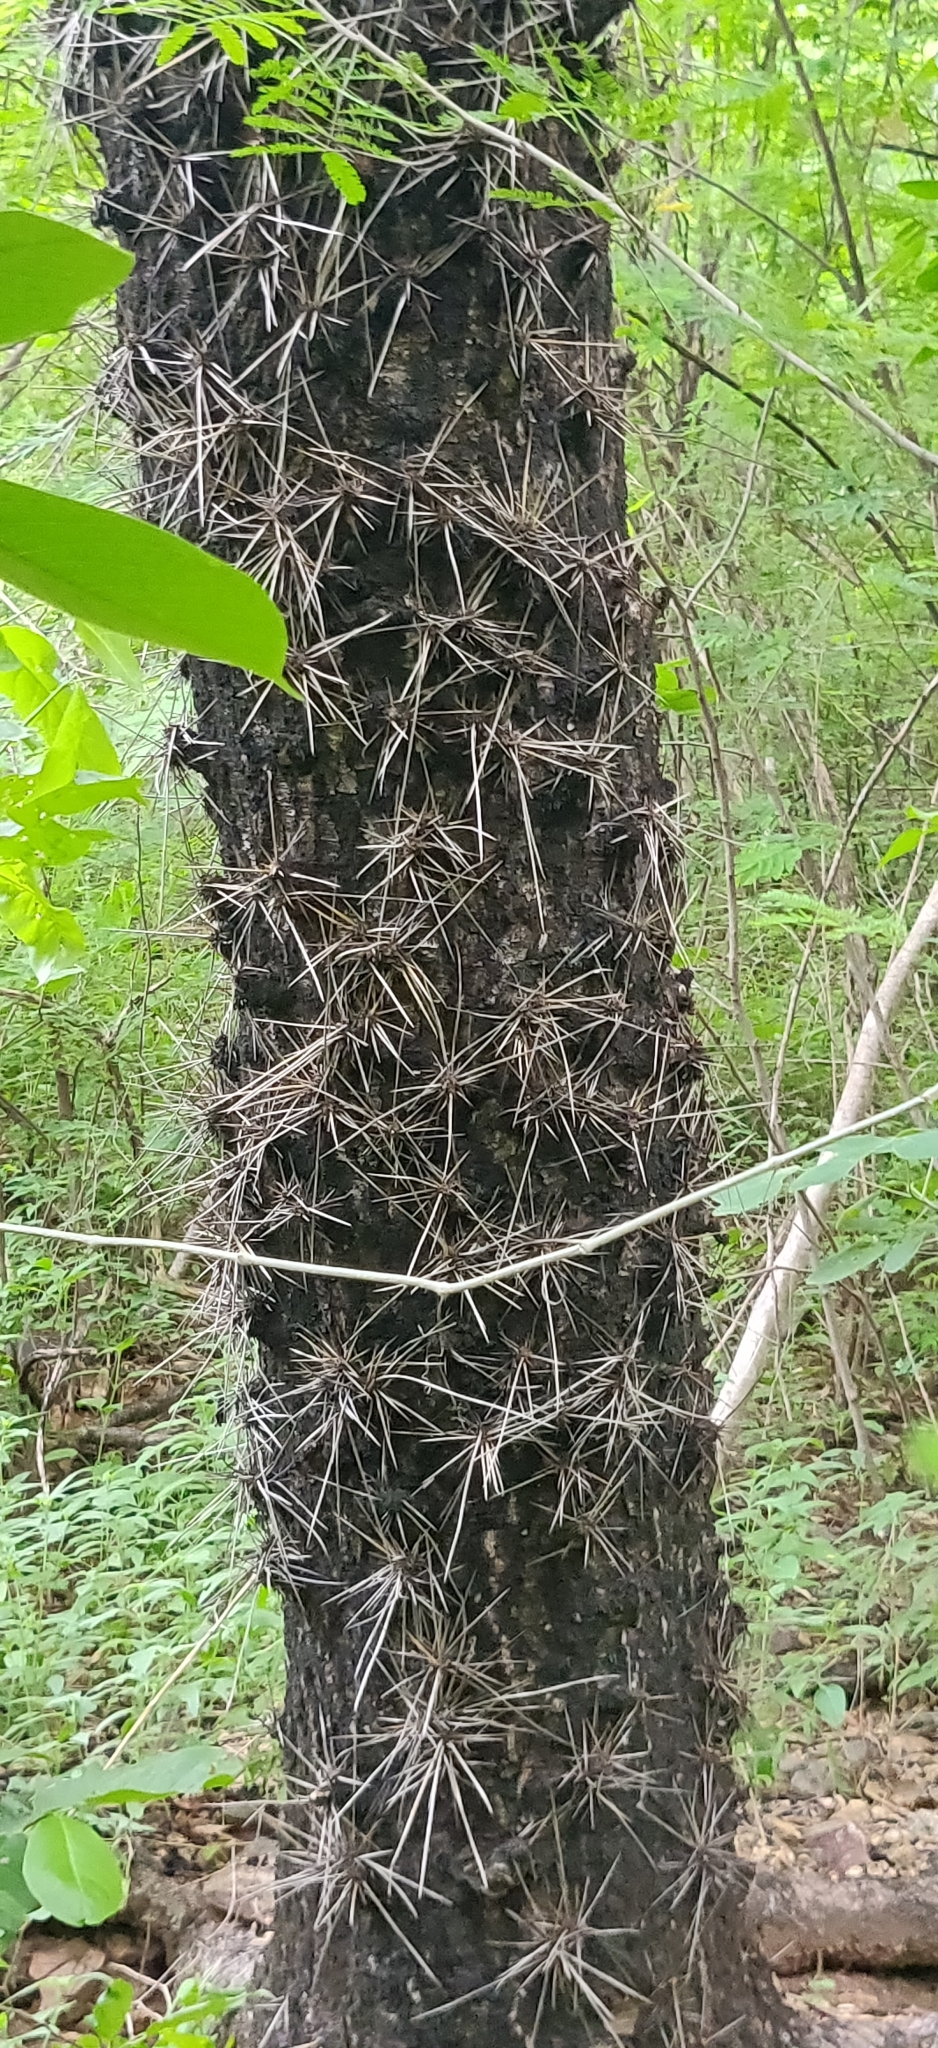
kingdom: Plantae
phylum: Tracheophyta
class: Magnoliopsida
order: Caryophyllales
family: Cactaceae
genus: Leuenbergeria
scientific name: Leuenbergeria lychnidiflora
